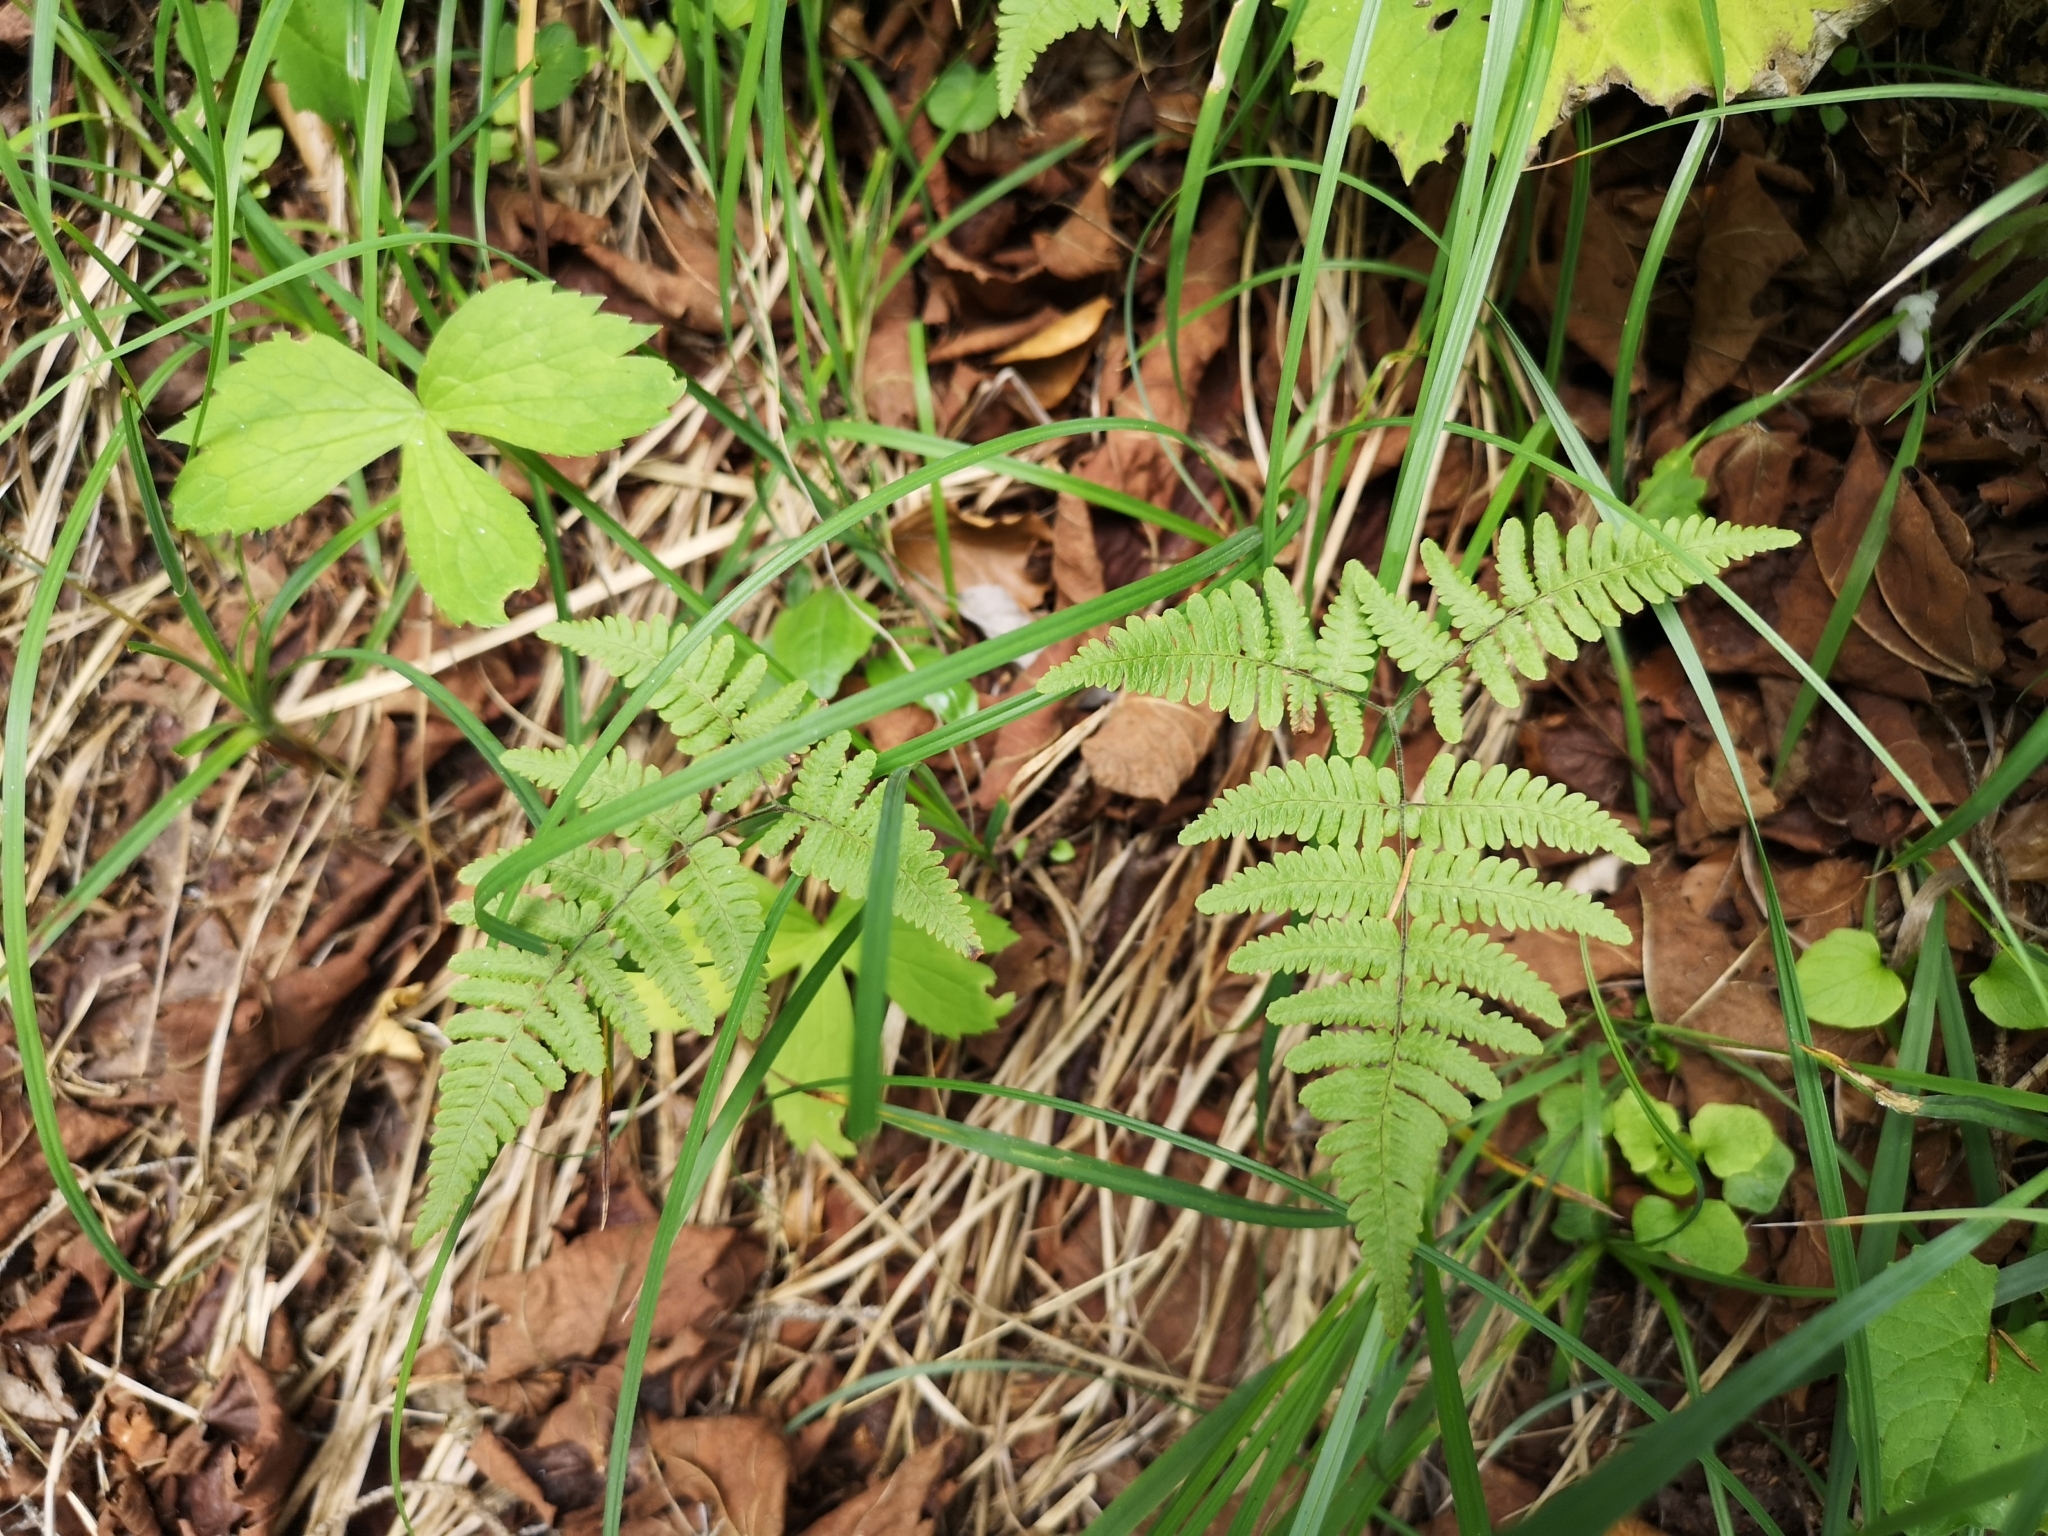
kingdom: Plantae
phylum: Tracheophyta
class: Polypodiopsida
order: Polypodiales
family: Cystopteridaceae
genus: Gymnocarpium
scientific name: Gymnocarpium robertianum
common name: Limestone fern
